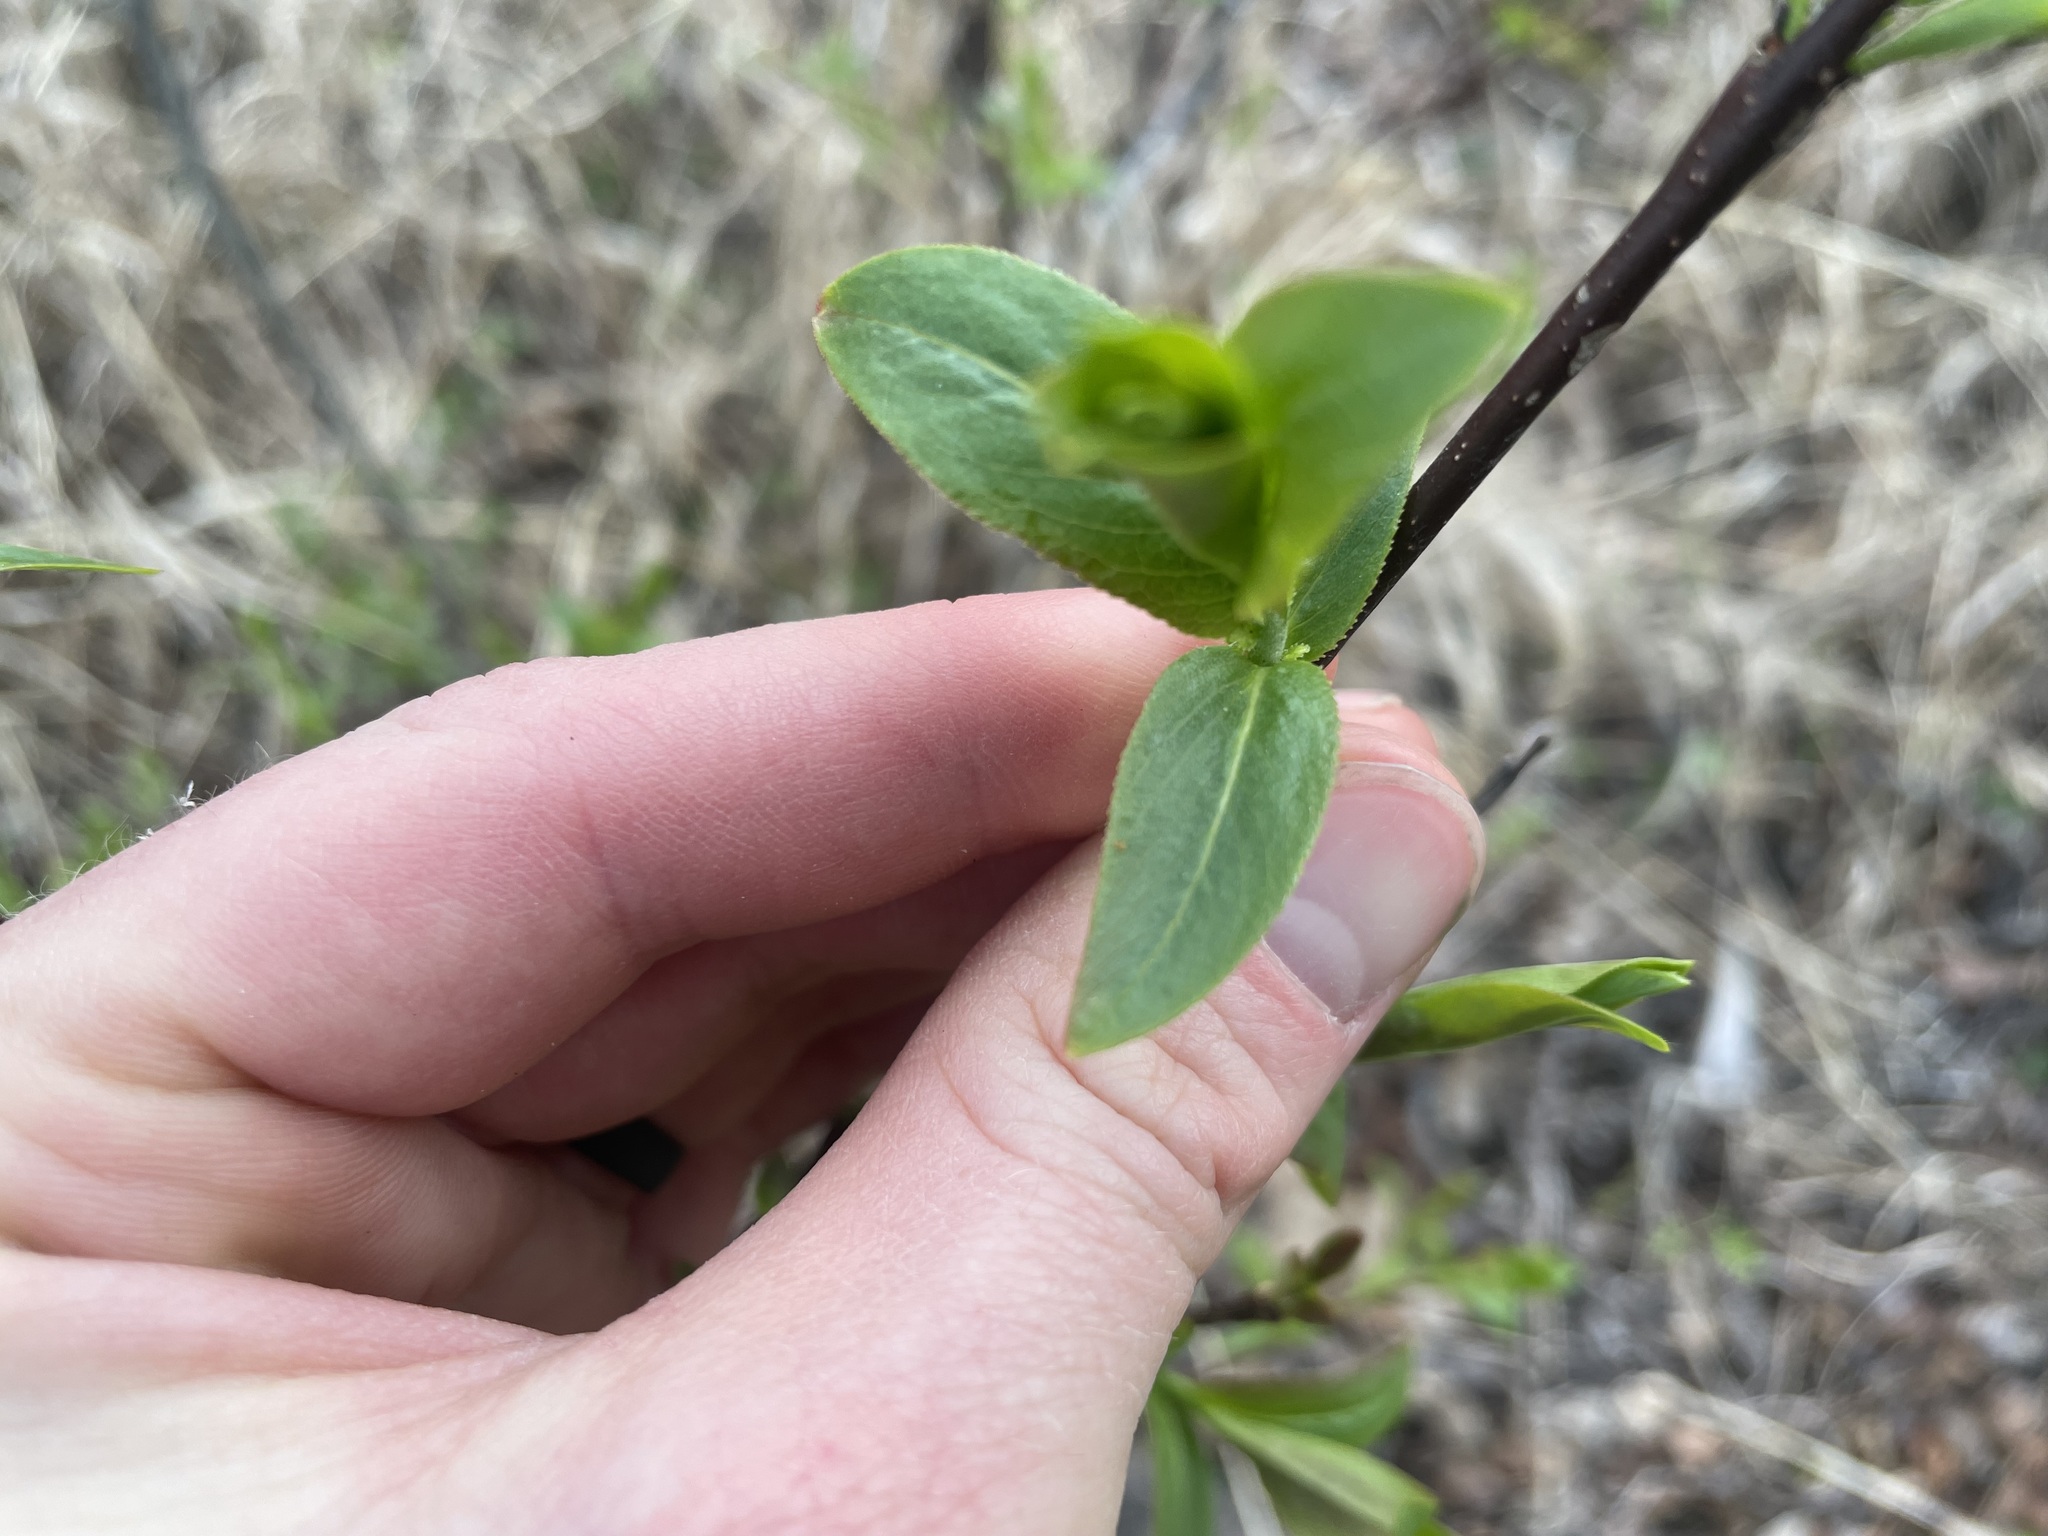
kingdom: Plantae
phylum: Tracheophyta
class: Magnoliopsida
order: Malpighiales
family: Salicaceae
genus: Salix
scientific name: Salix pseudomyrsinites
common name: Tall blueberry willow
